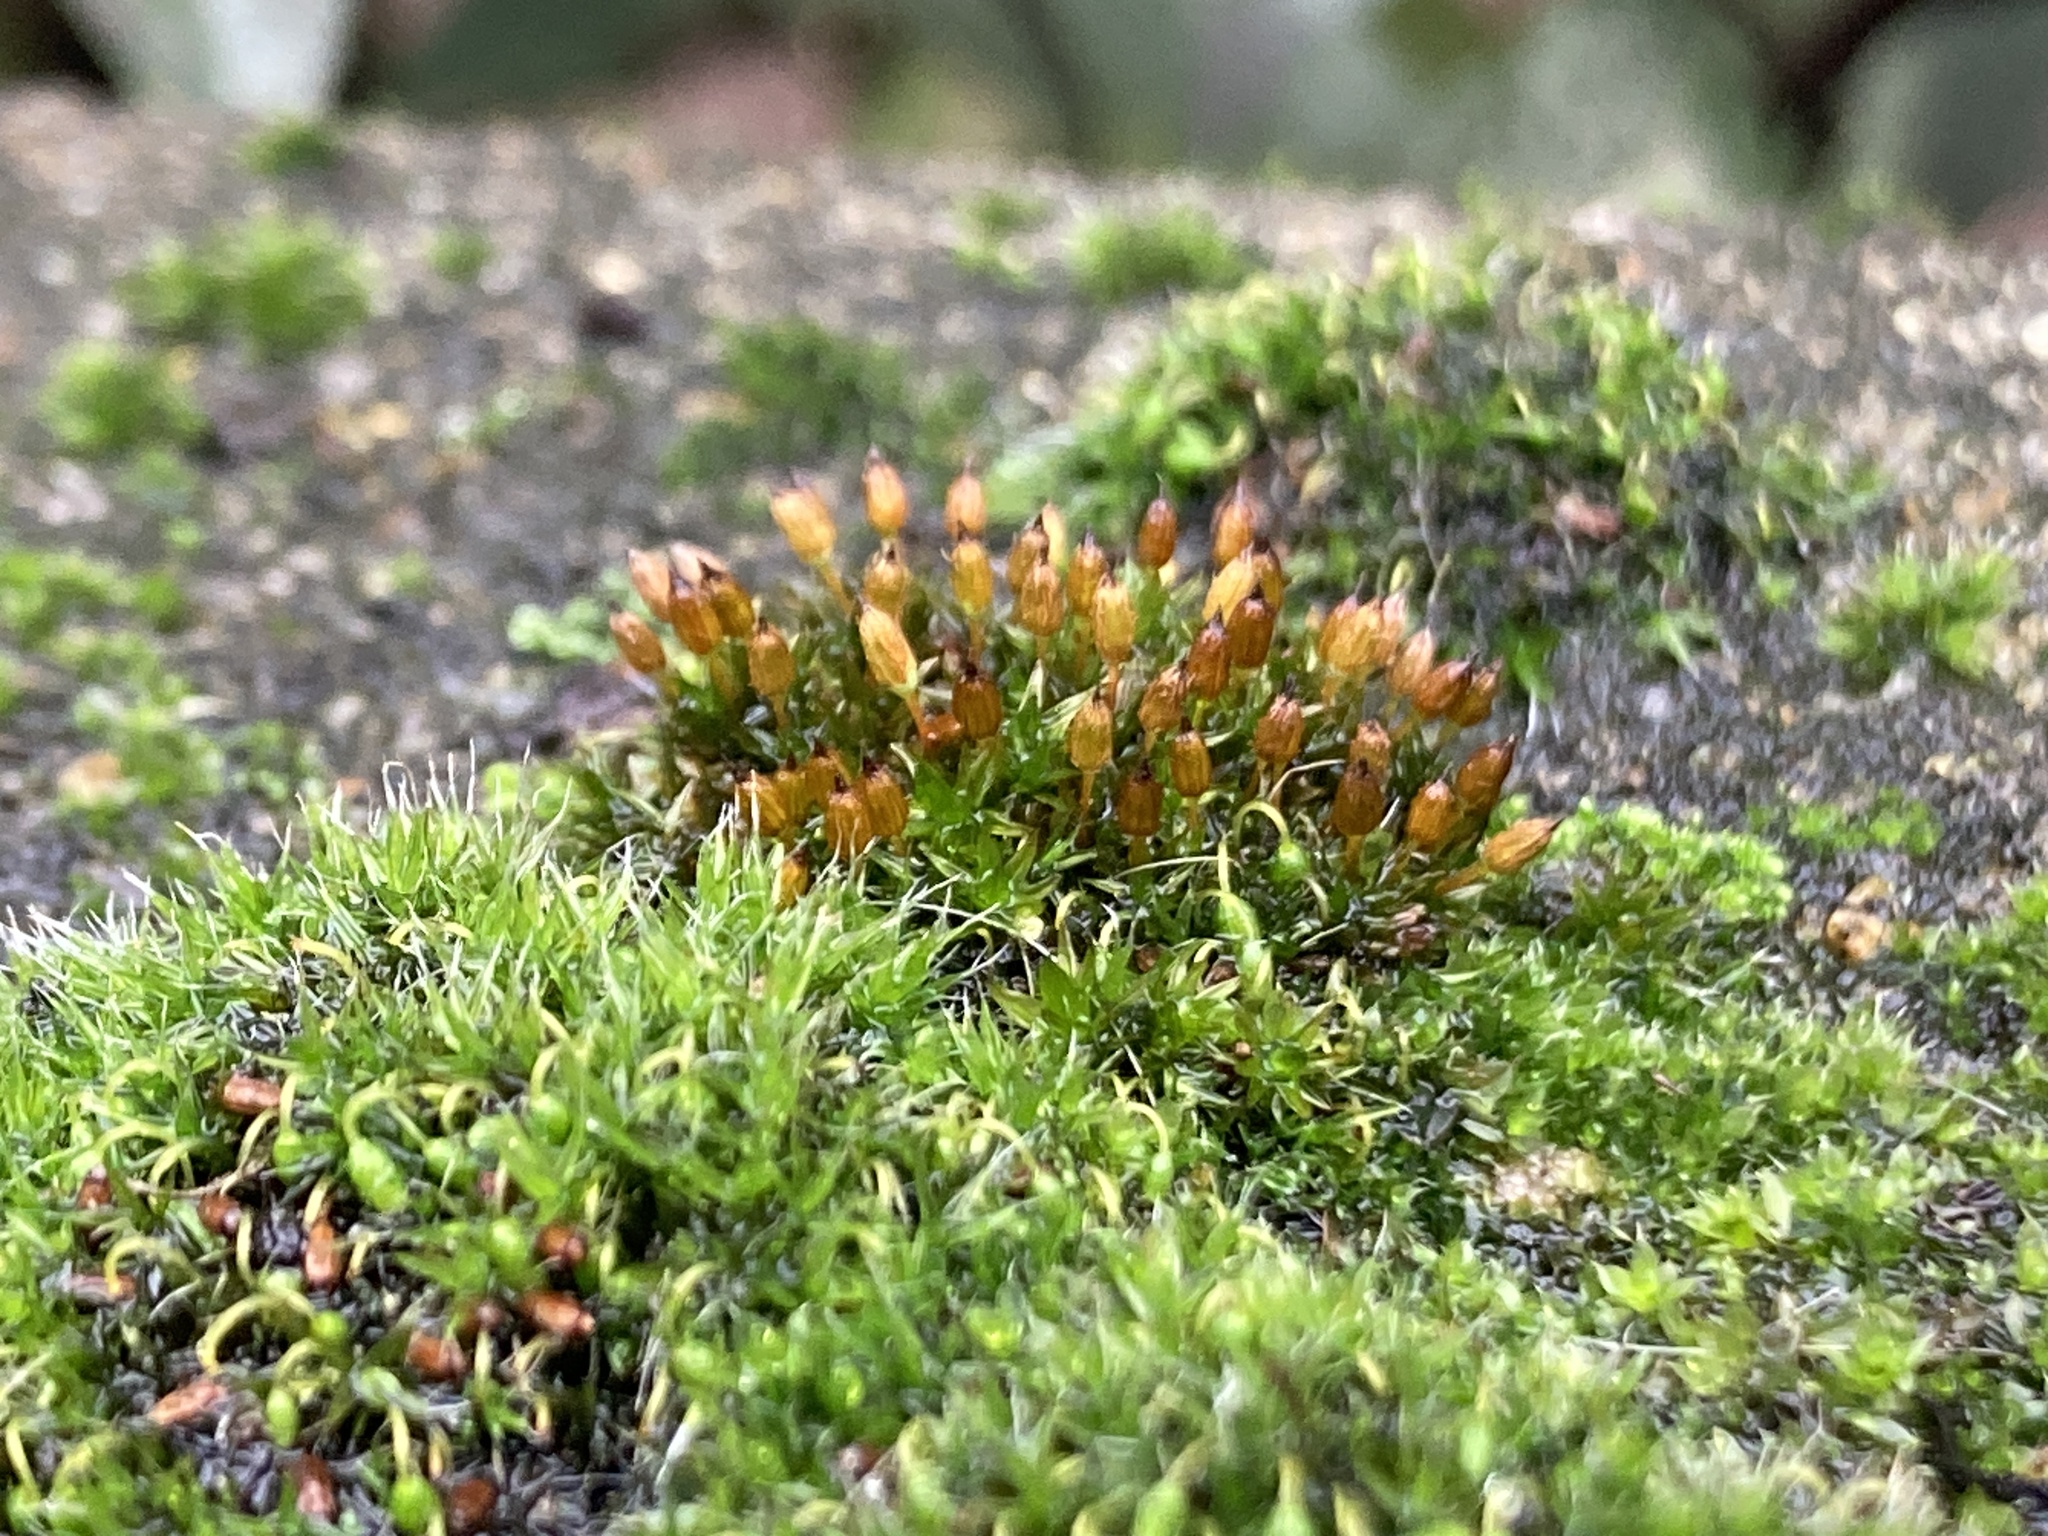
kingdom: Plantae
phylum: Bryophyta
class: Bryopsida
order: Orthotrichales
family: Orthotrichaceae
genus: Orthotrichum
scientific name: Orthotrichum anomalum
